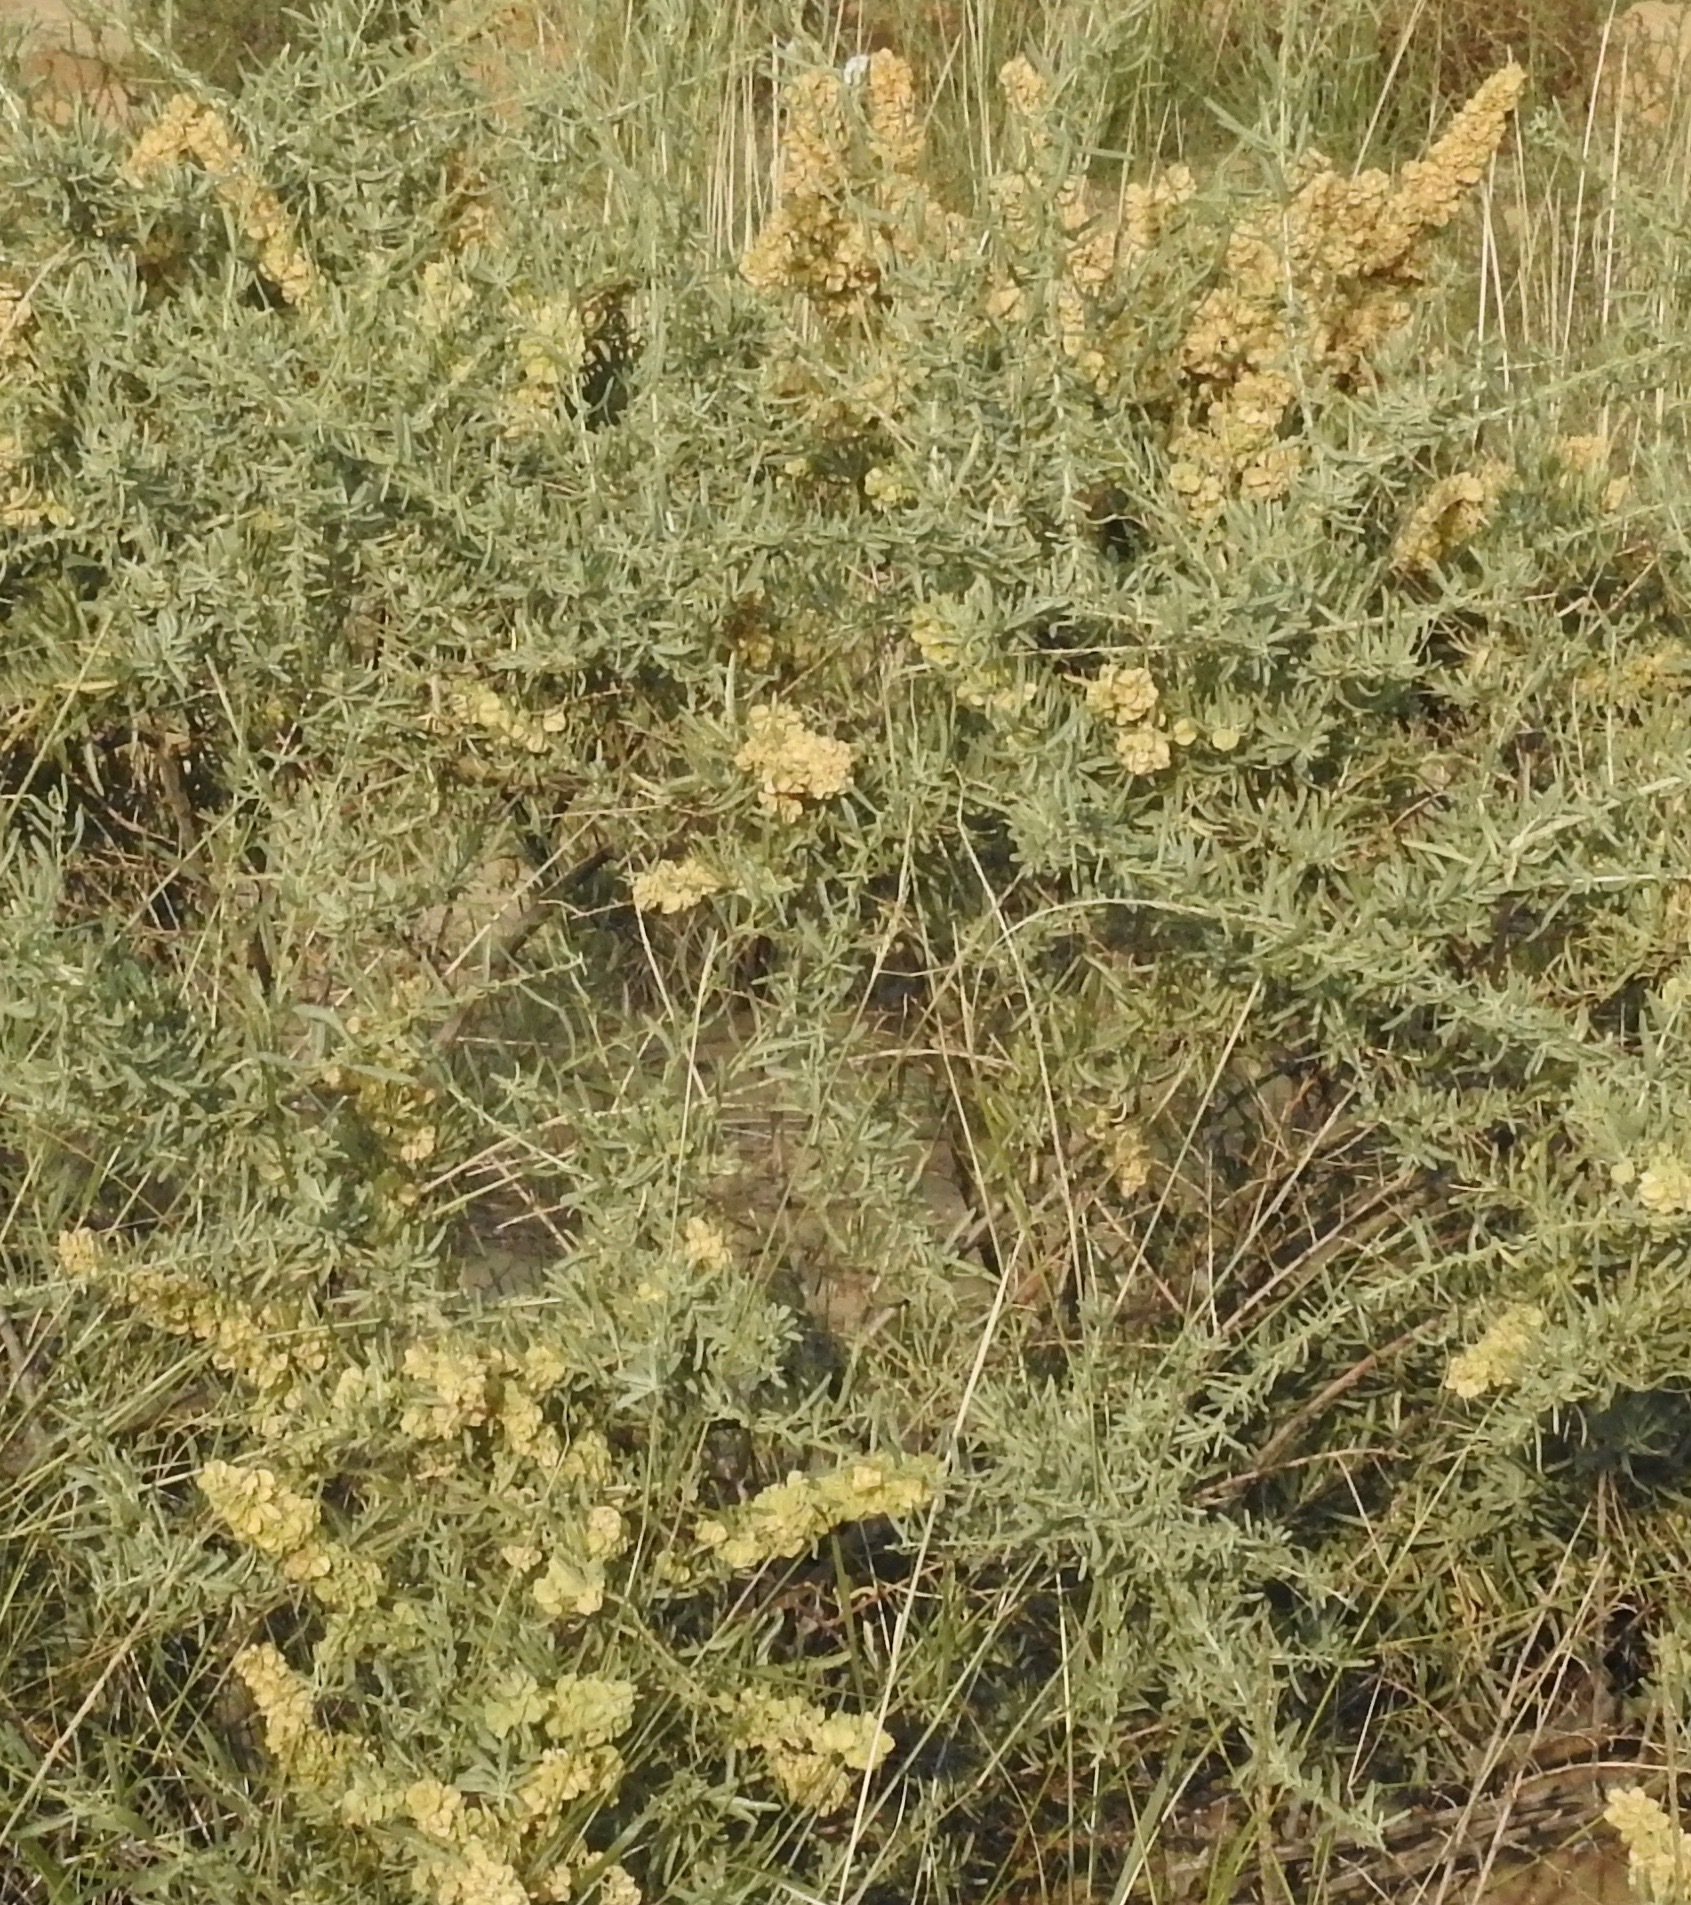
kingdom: Plantae
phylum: Tracheophyta
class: Magnoliopsida
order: Caryophyllales
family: Amaranthaceae
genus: Atriplex
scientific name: Atriplex canescens
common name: Four-wing saltbush
